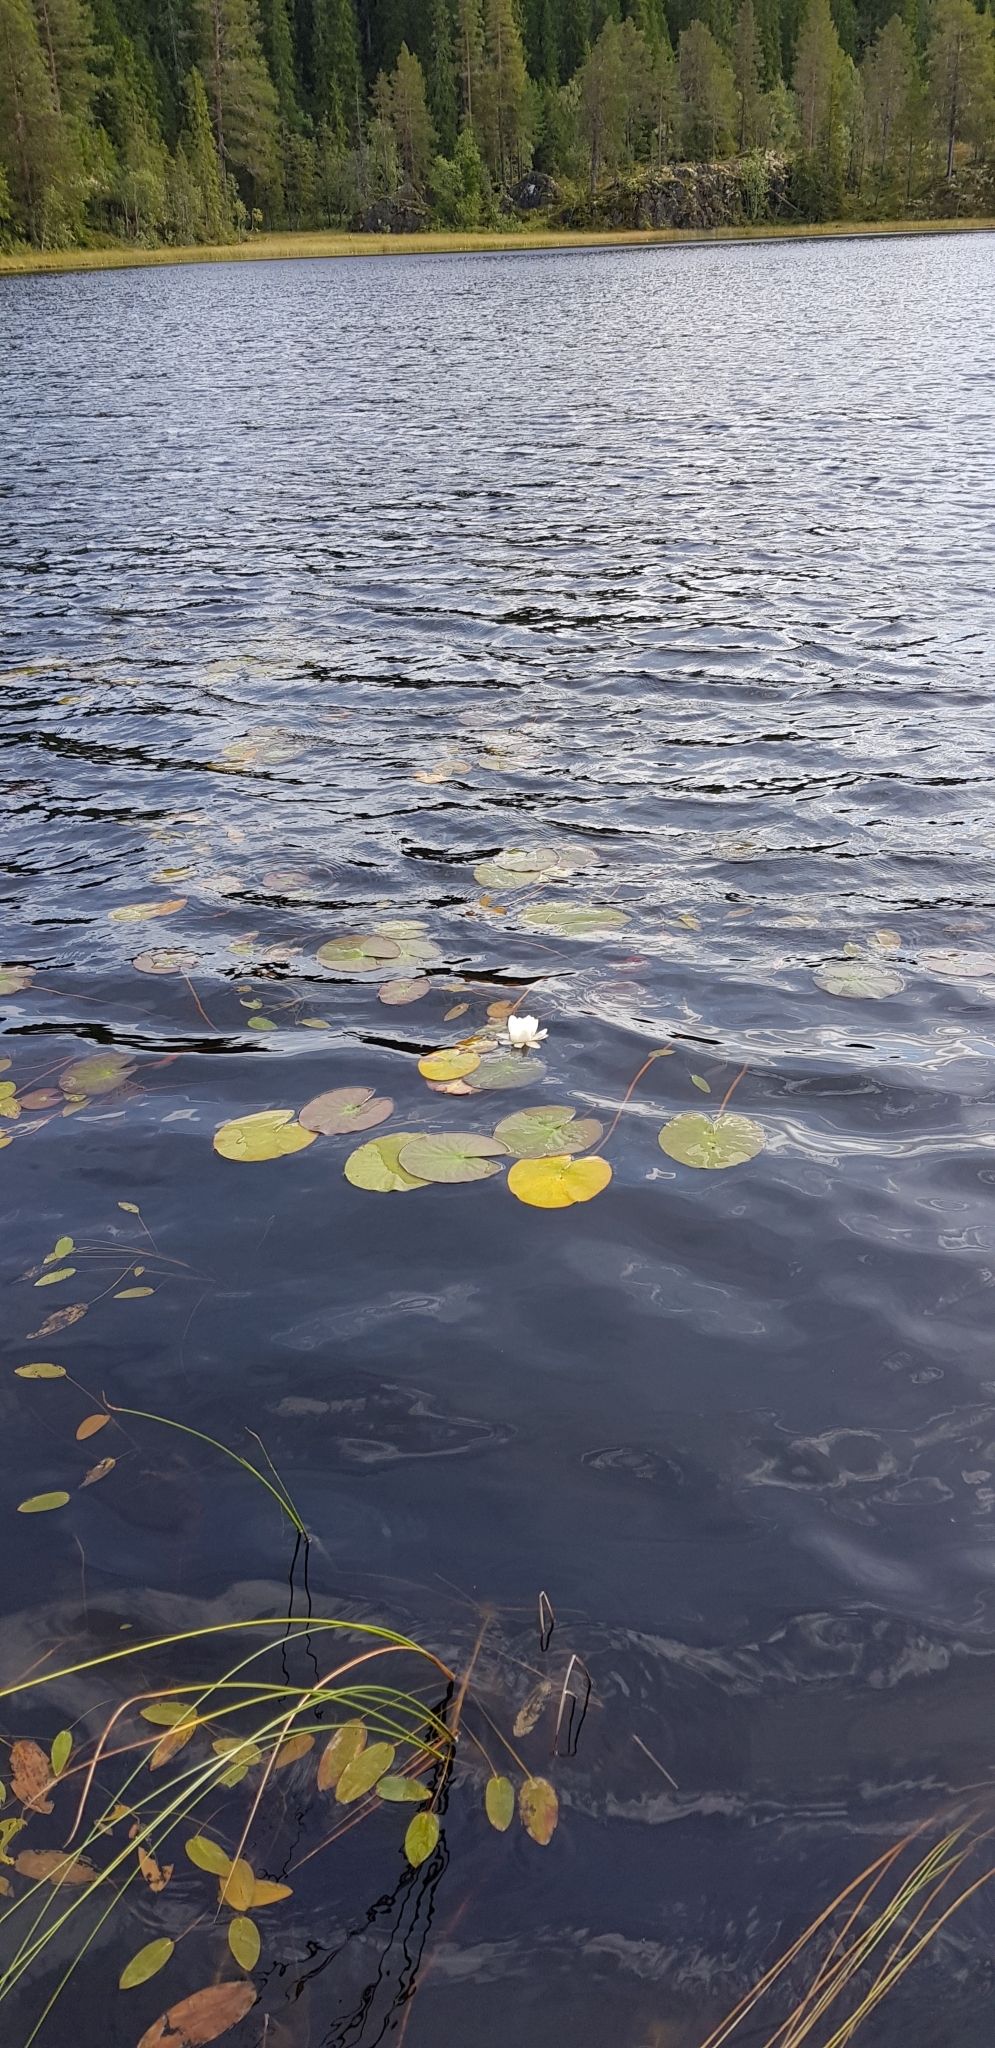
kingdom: Plantae
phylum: Tracheophyta
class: Magnoliopsida
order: Nymphaeales
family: Nymphaeaceae
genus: Nymphaea
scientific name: Nymphaea alba
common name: White water-lily
